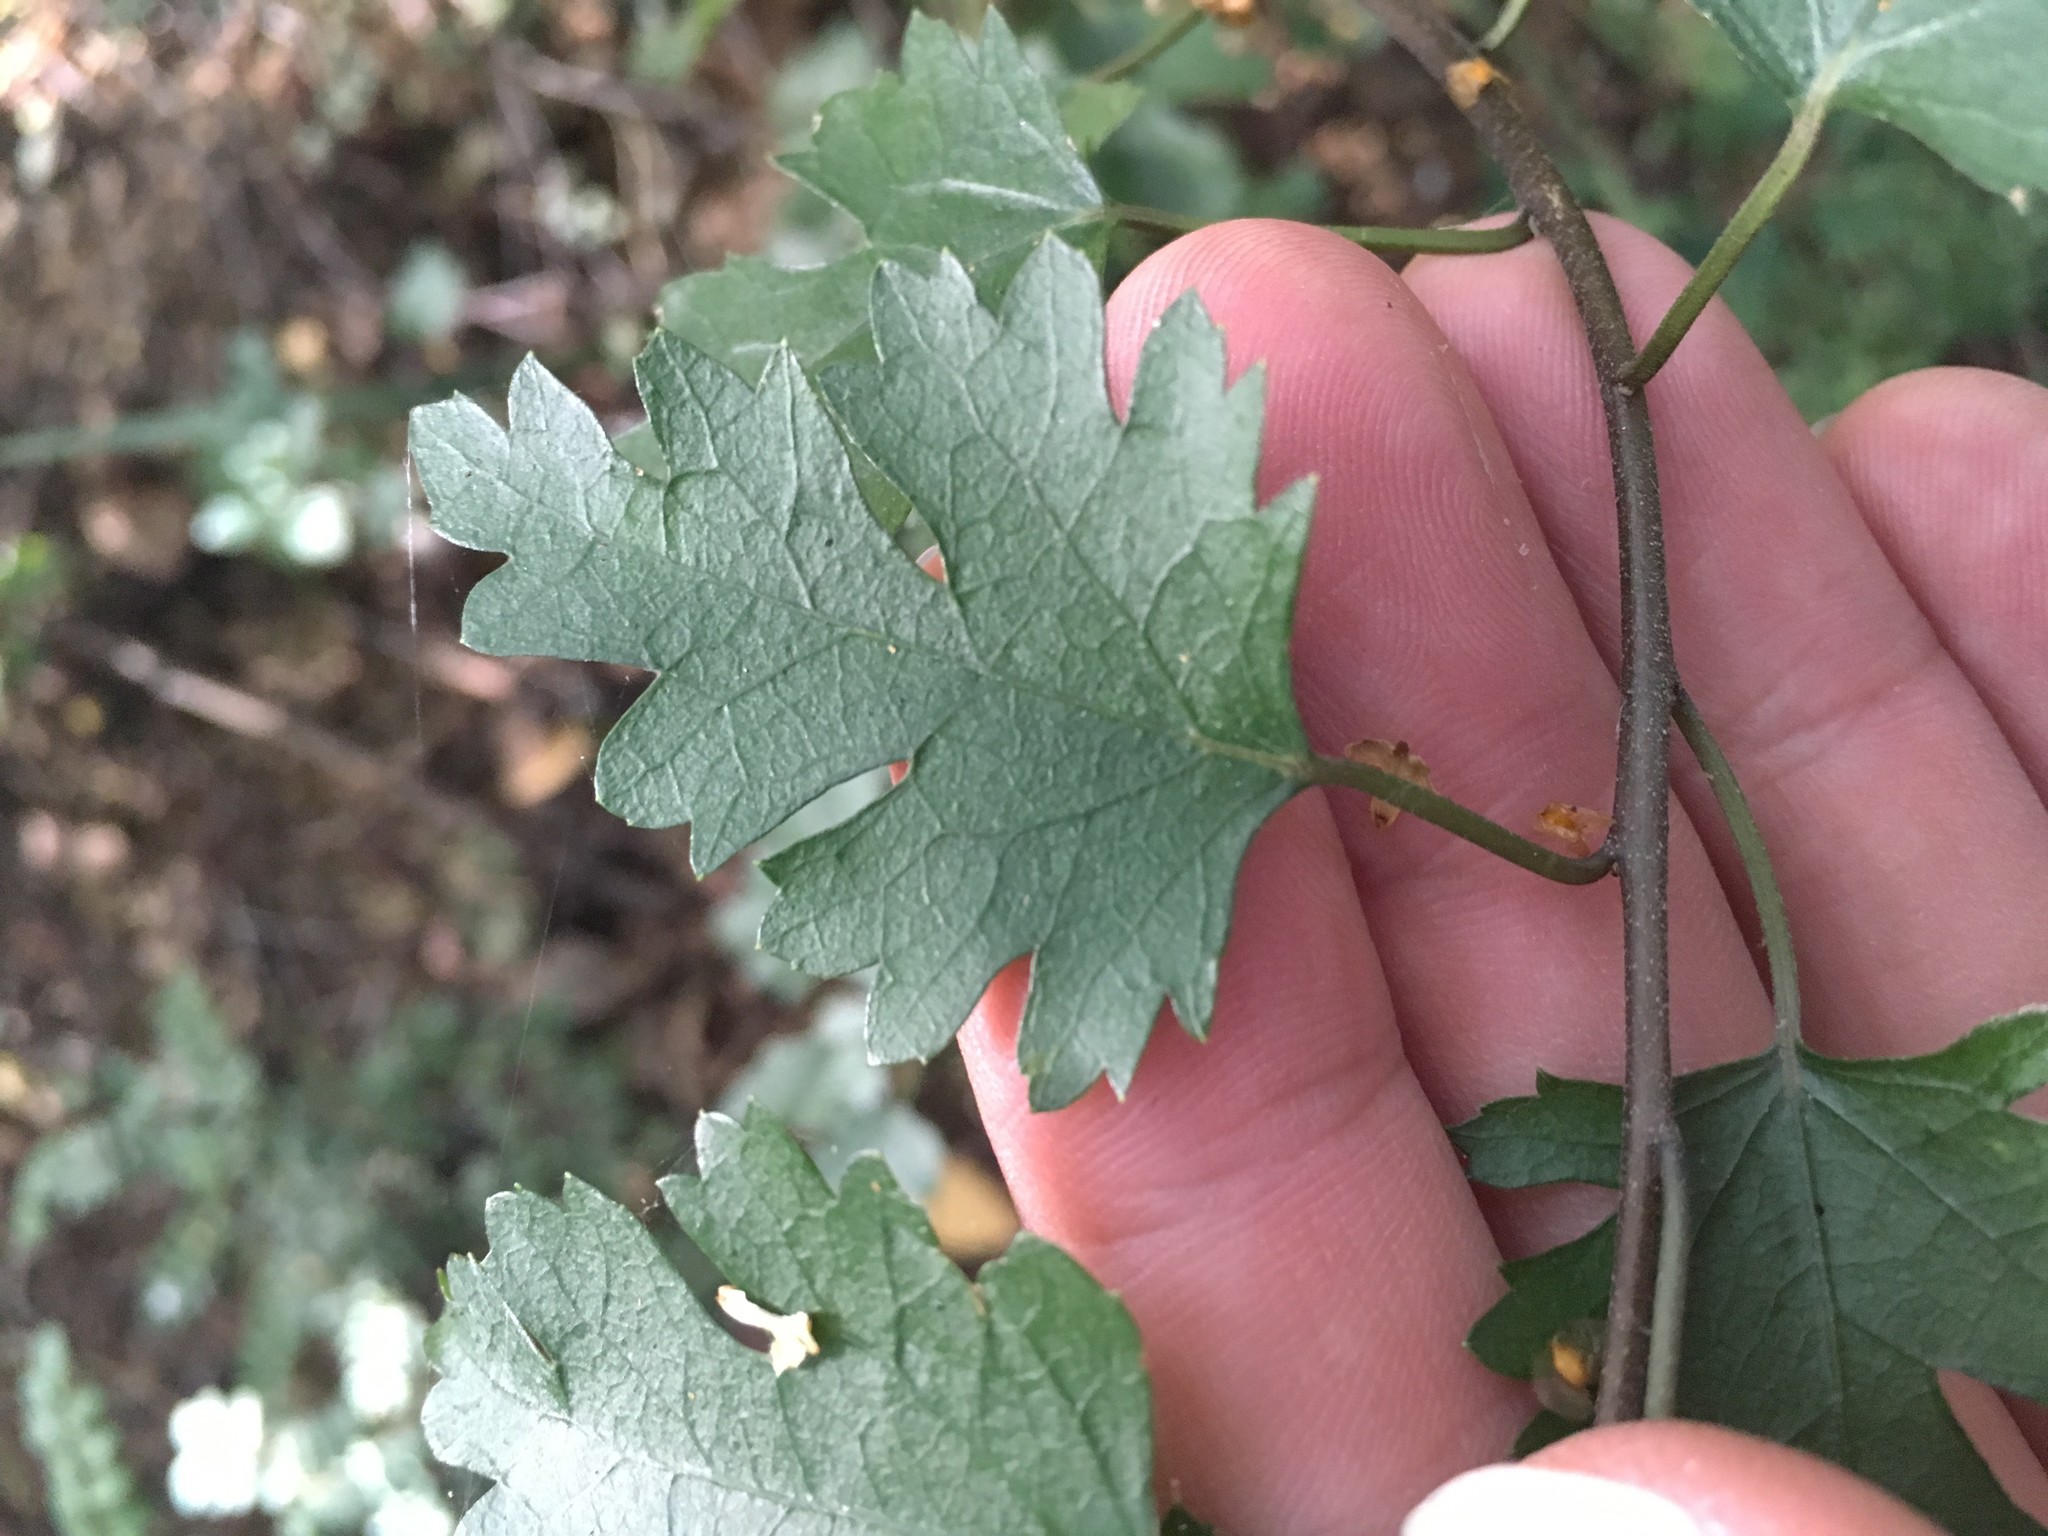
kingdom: Plantae
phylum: Tracheophyta
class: Magnoliopsida
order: Rosales
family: Rosaceae
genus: Crataegus
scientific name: Crataegus monogyna
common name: Hawthorn
